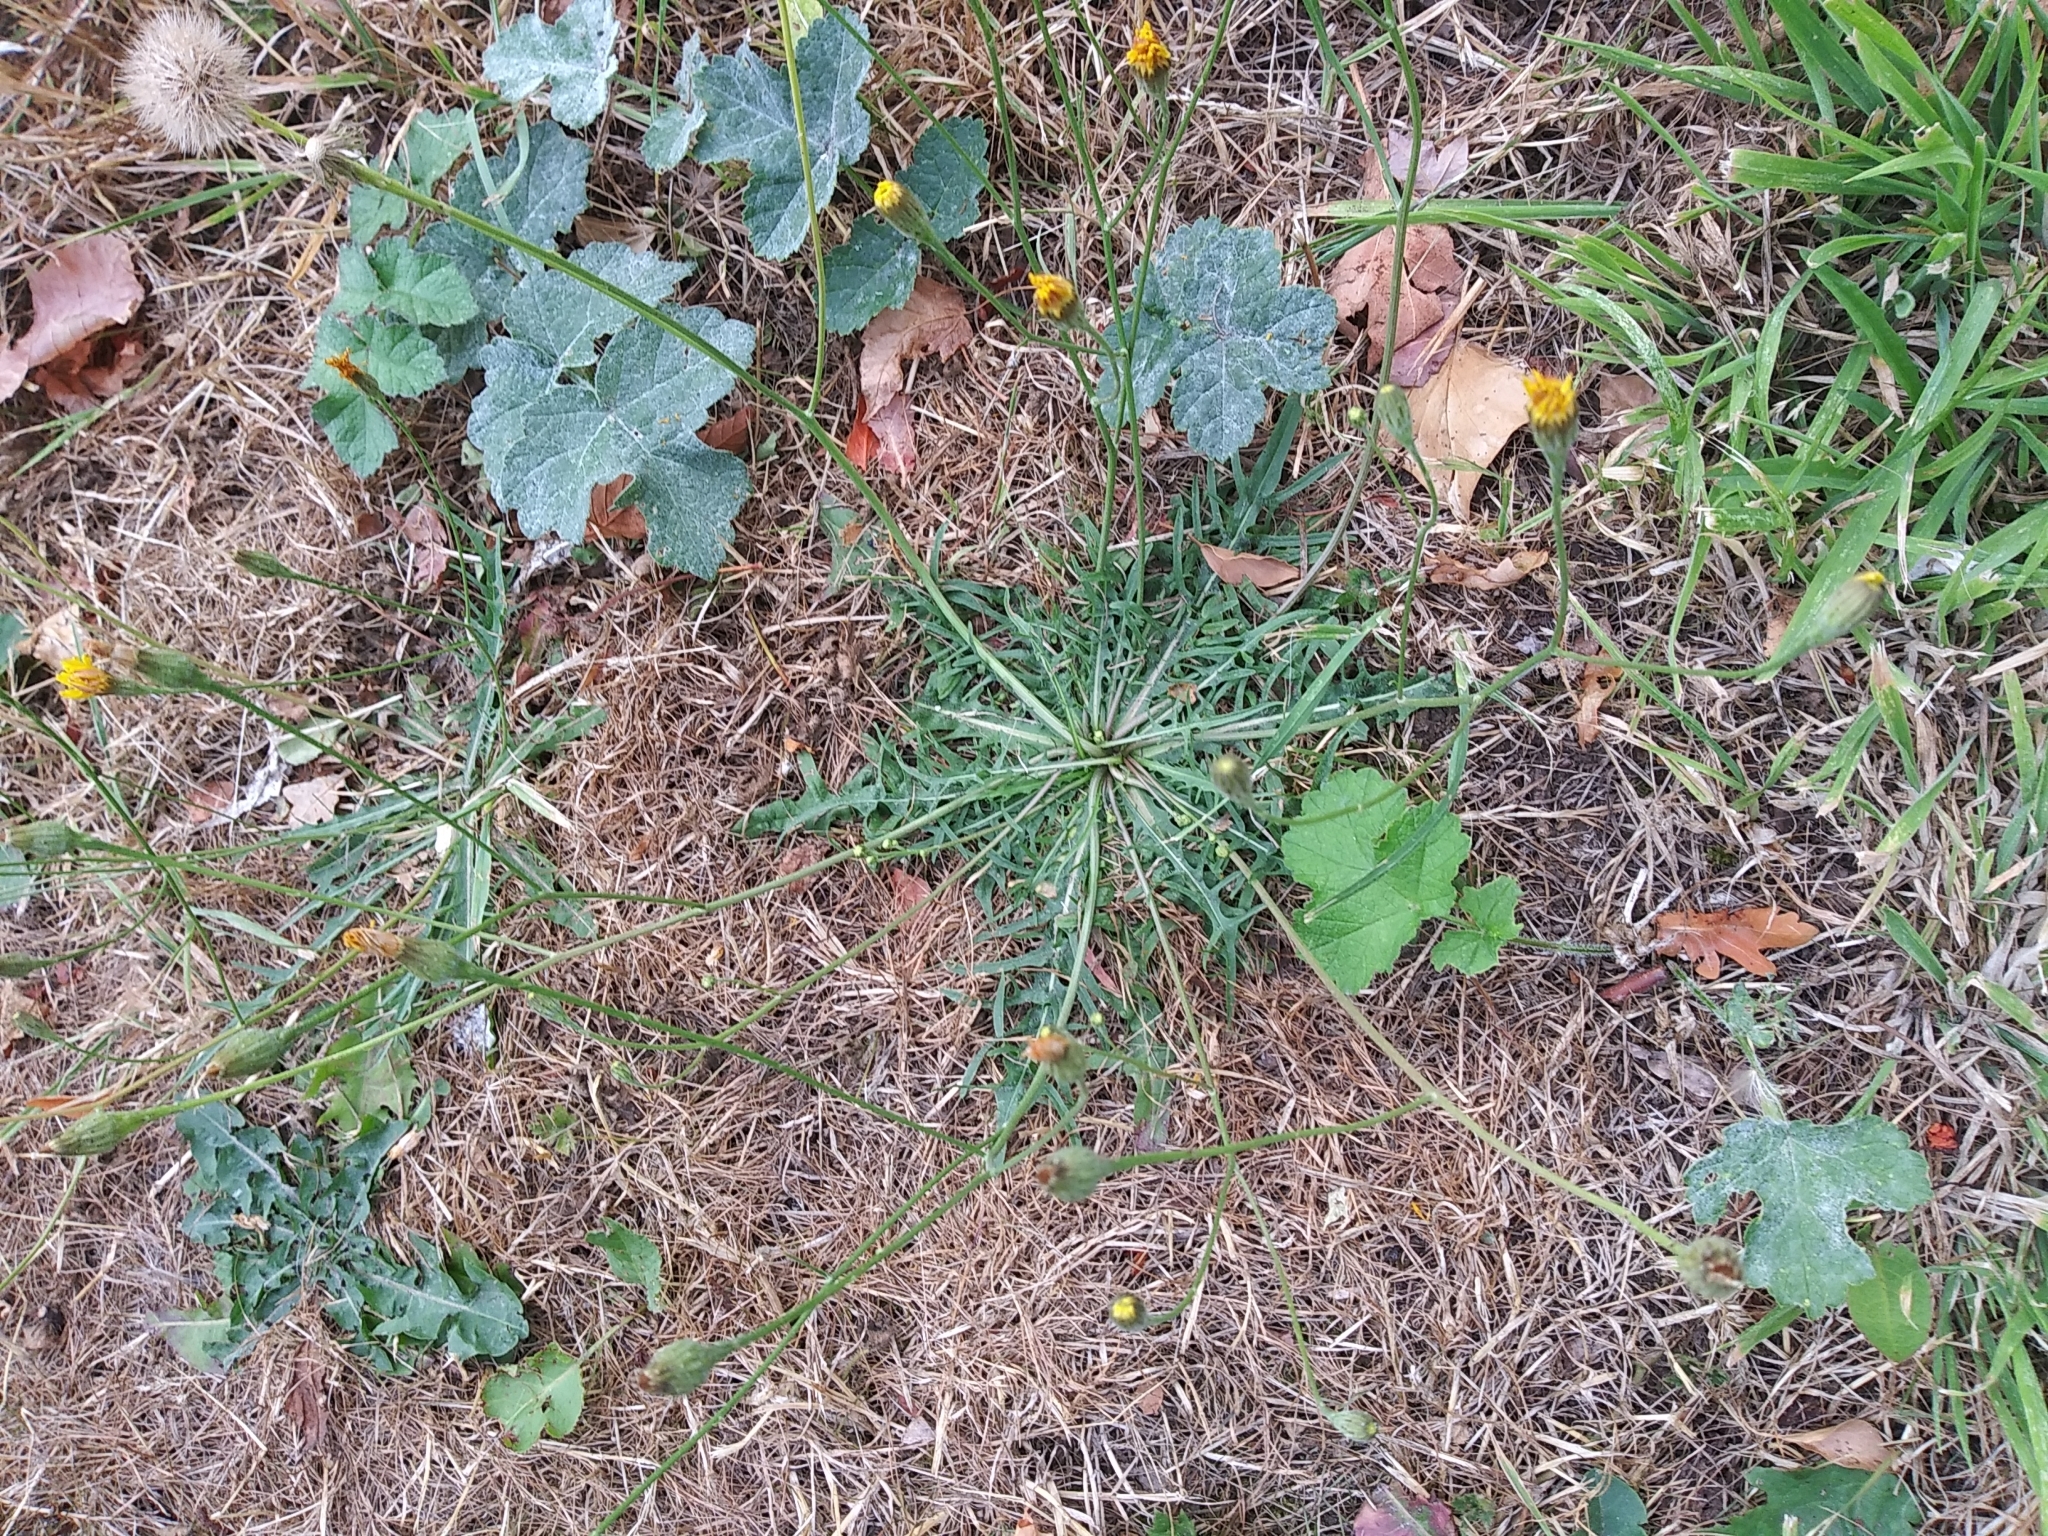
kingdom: Plantae
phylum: Tracheophyta
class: Magnoliopsida
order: Asterales
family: Asteraceae
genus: Scorzoneroides
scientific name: Scorzoneroides autumnalis
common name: Autumn hawkbit
